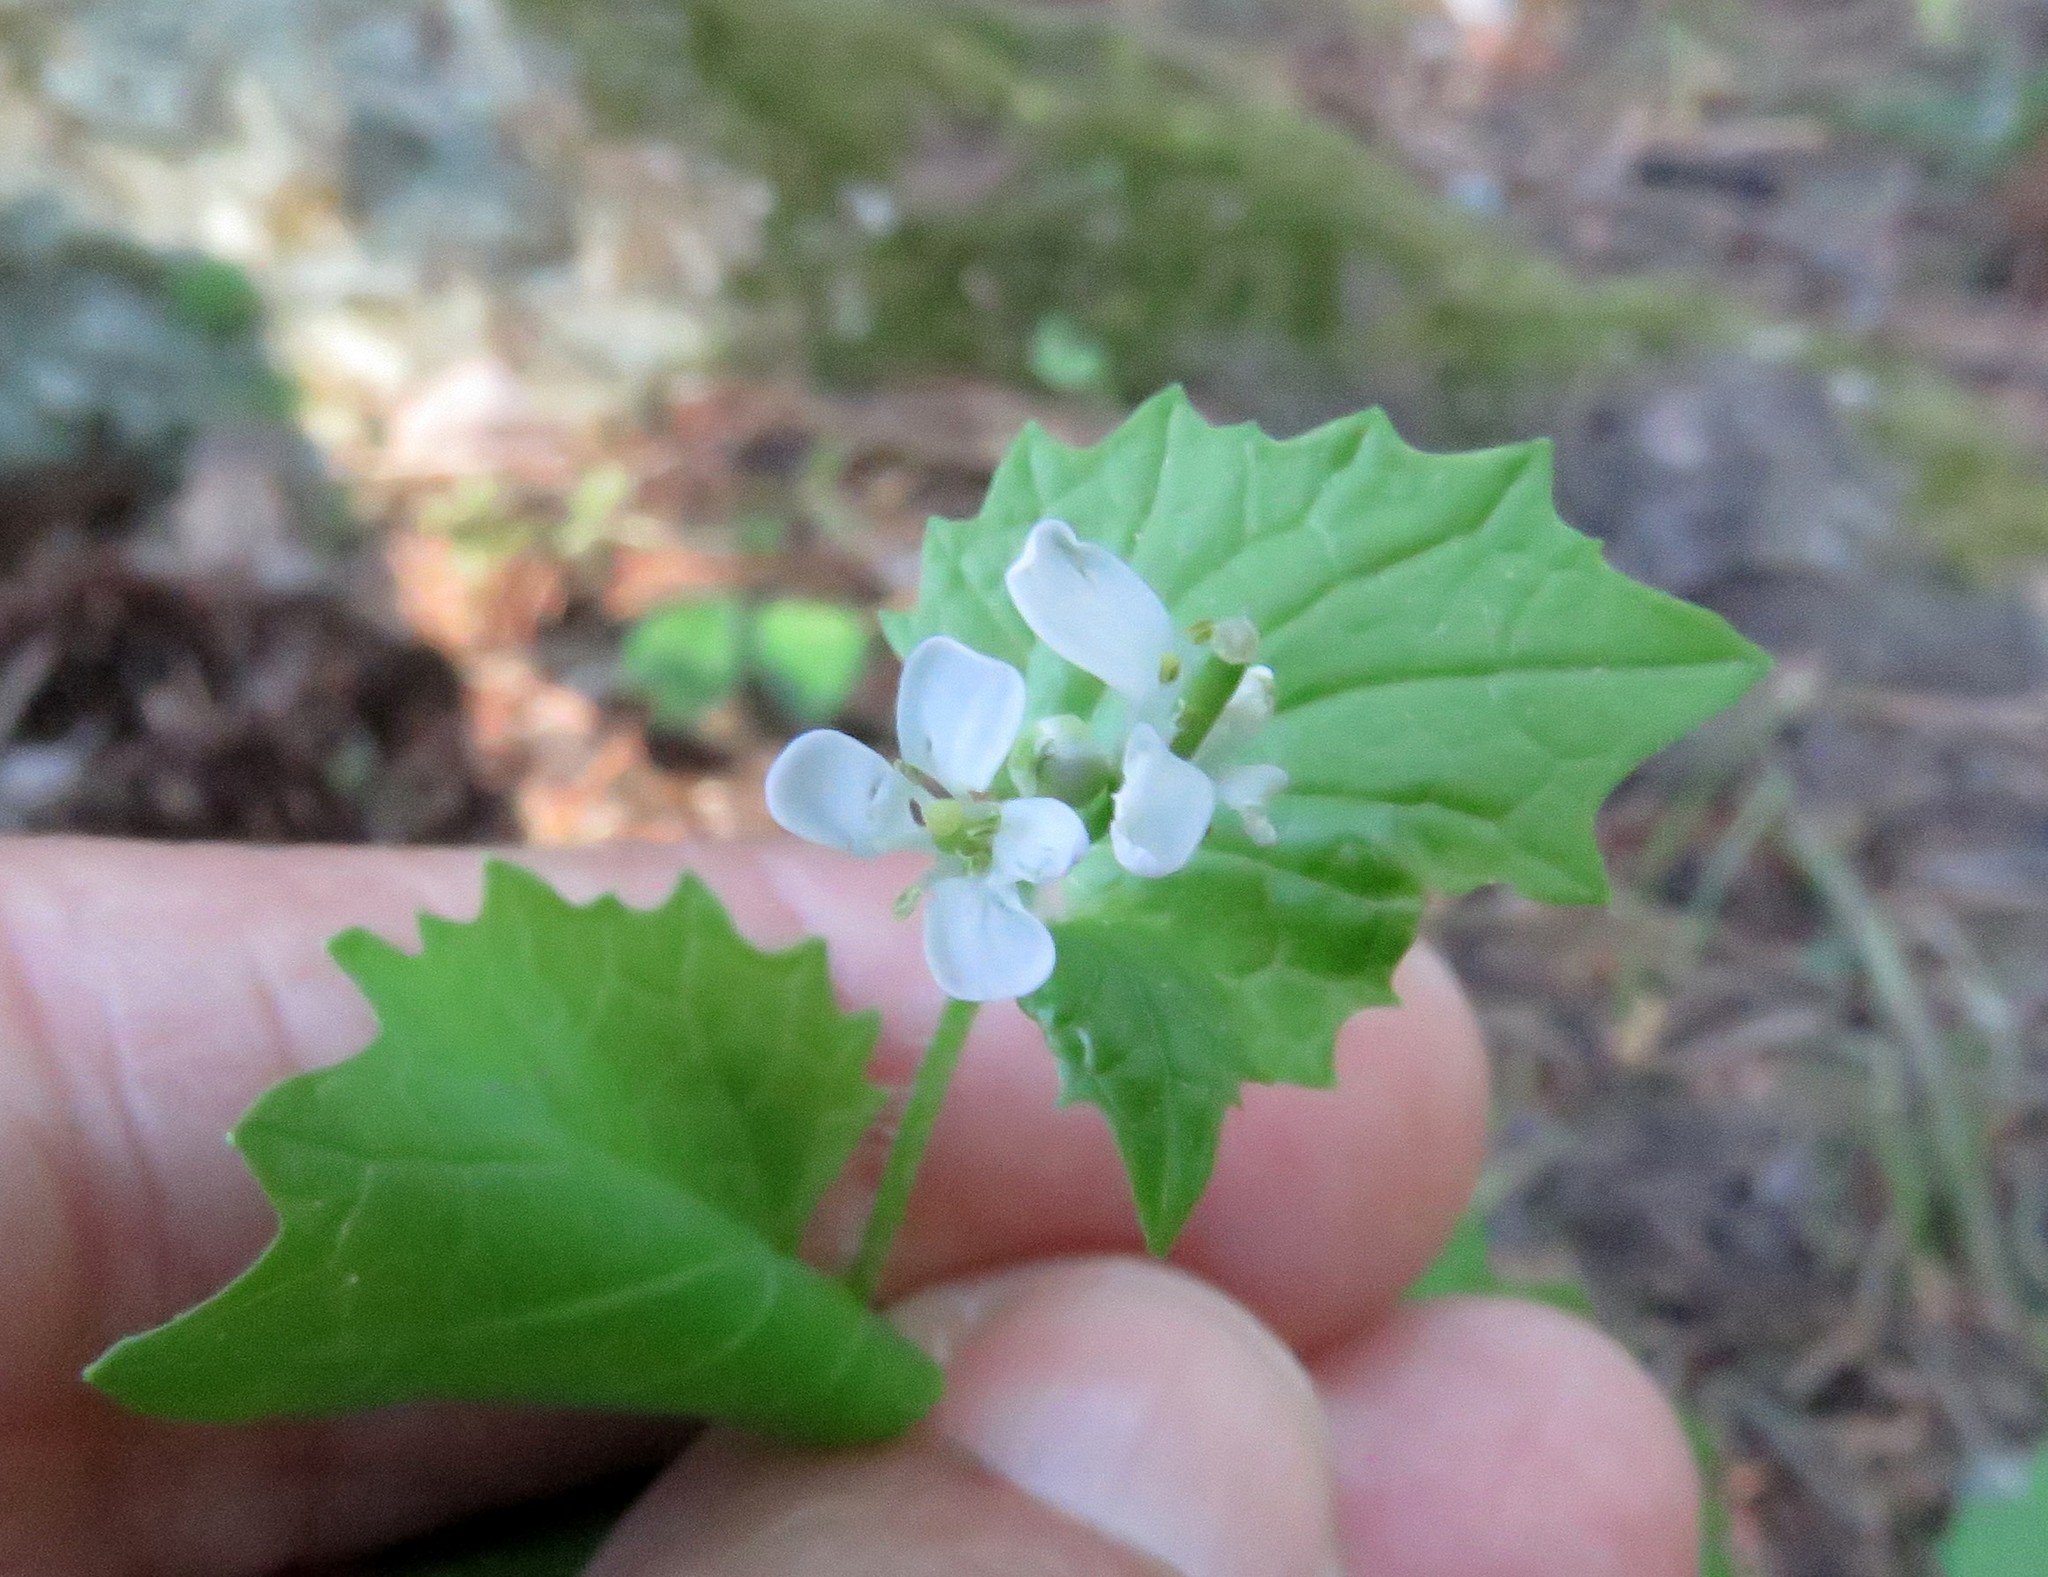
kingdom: Plantae
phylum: Tracheophyta
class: Magnoliopsida
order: Brassicales
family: Brassicaceae
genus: Alliaria
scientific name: Alliaria petiolata
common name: Garlic mustard
